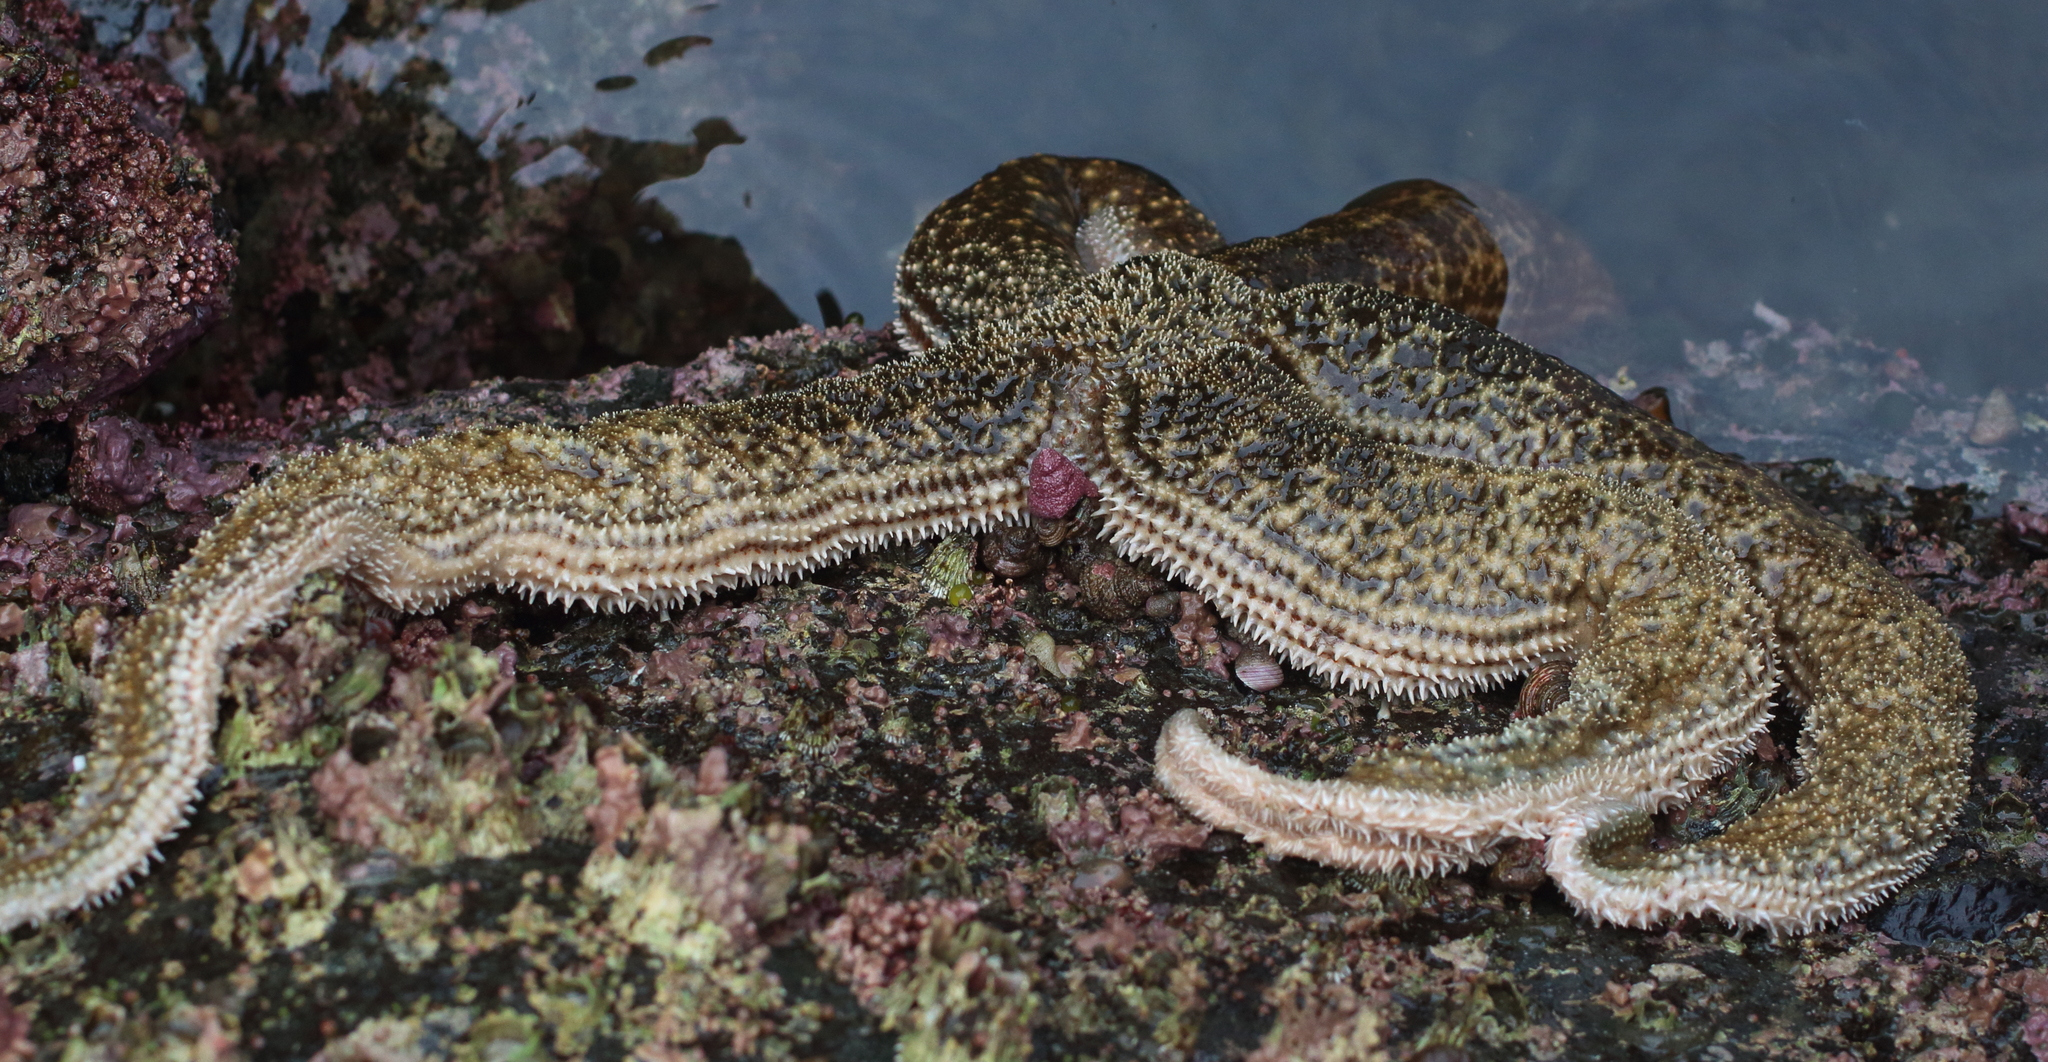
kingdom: Animalia
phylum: Echinodermata
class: Asteroidea
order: Forcipulatida
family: Asteriidae
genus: Evasterias
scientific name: Evasterias troschelii
